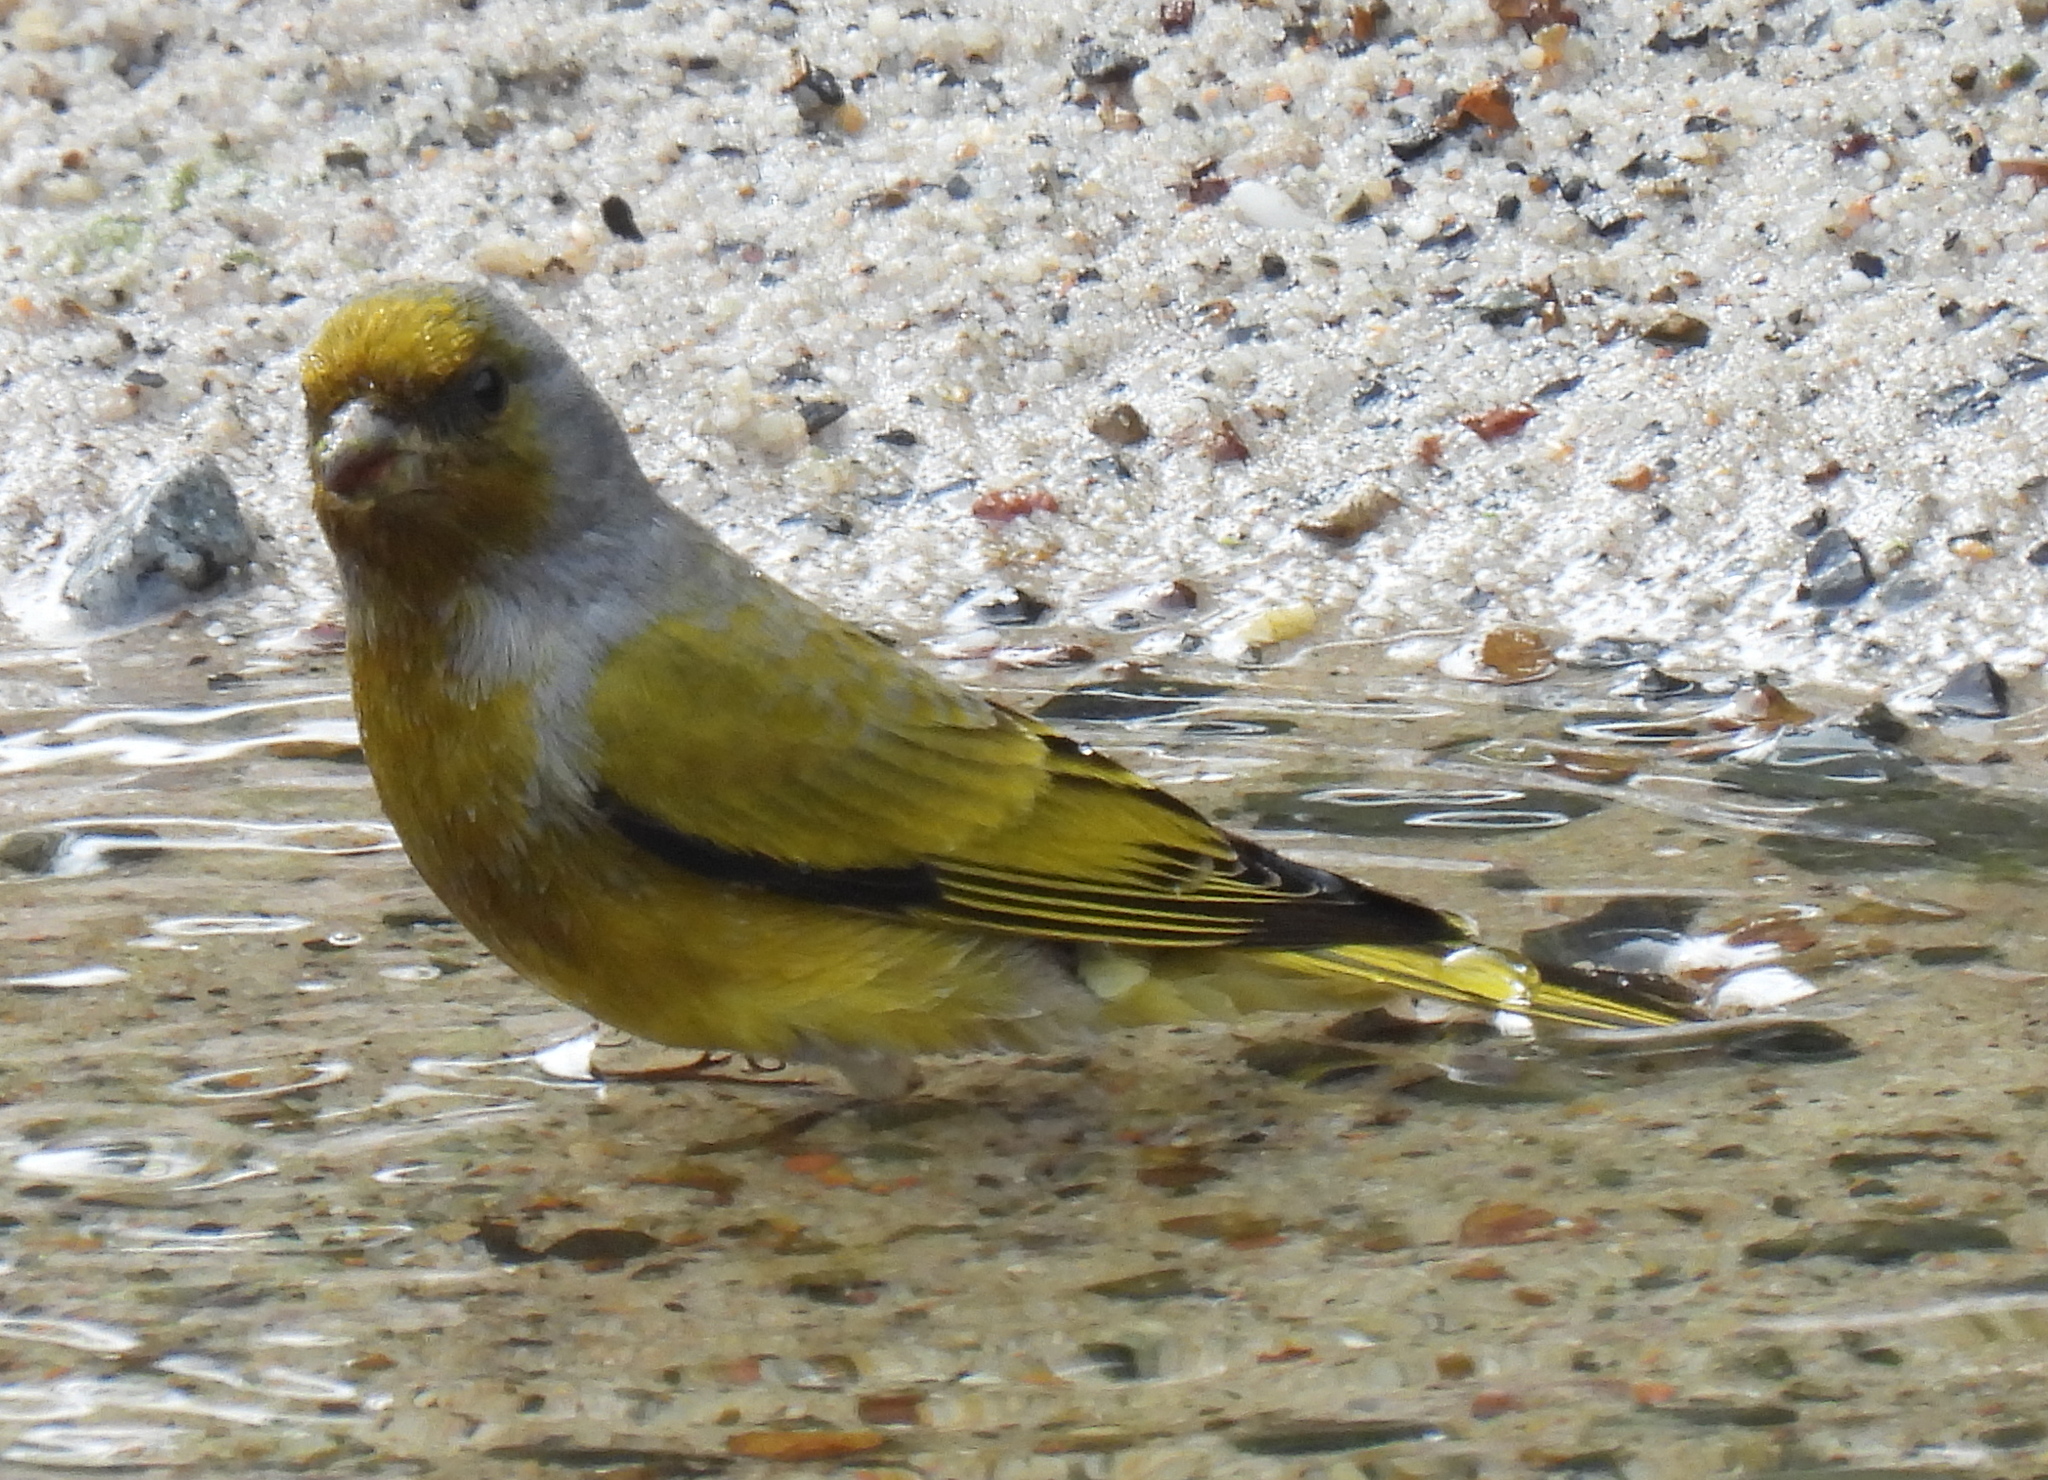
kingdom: Animalia
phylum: Chordata
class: Aves
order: Passeriformes
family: Fringillidae
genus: Serinus
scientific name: Serinus canicollis
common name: Cape canary
